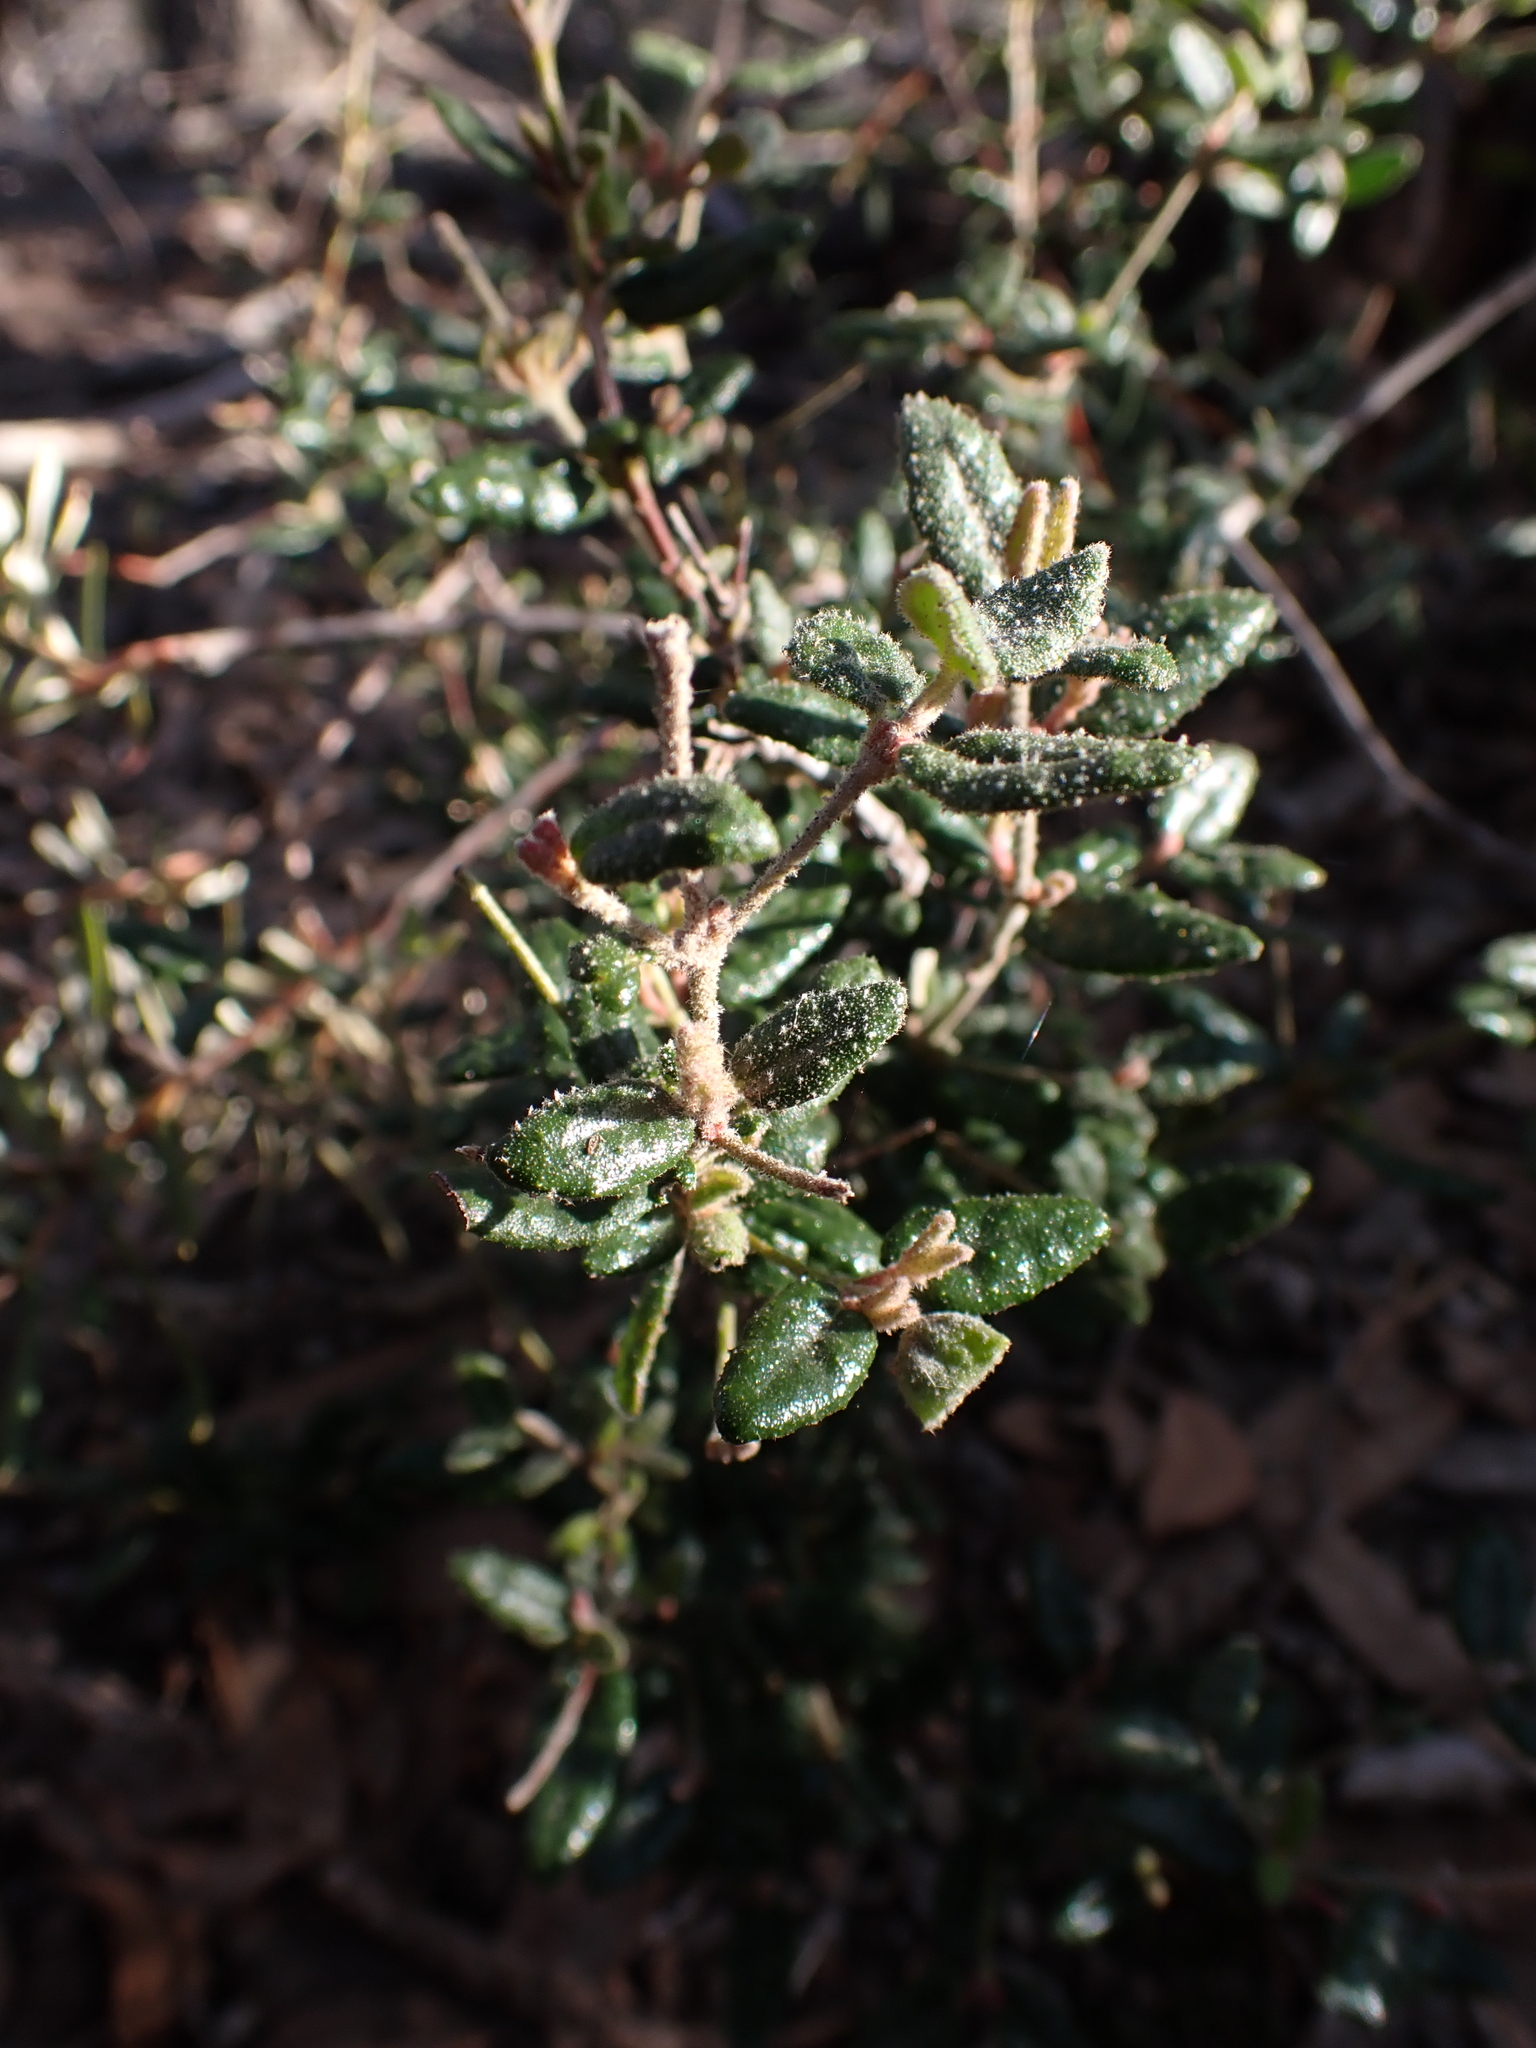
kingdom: Plantae
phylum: Tracheophyta
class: Magnoliopsida
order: Sapindales
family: Rutaceae
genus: Correa
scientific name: Correa reflexa
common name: Common correa
